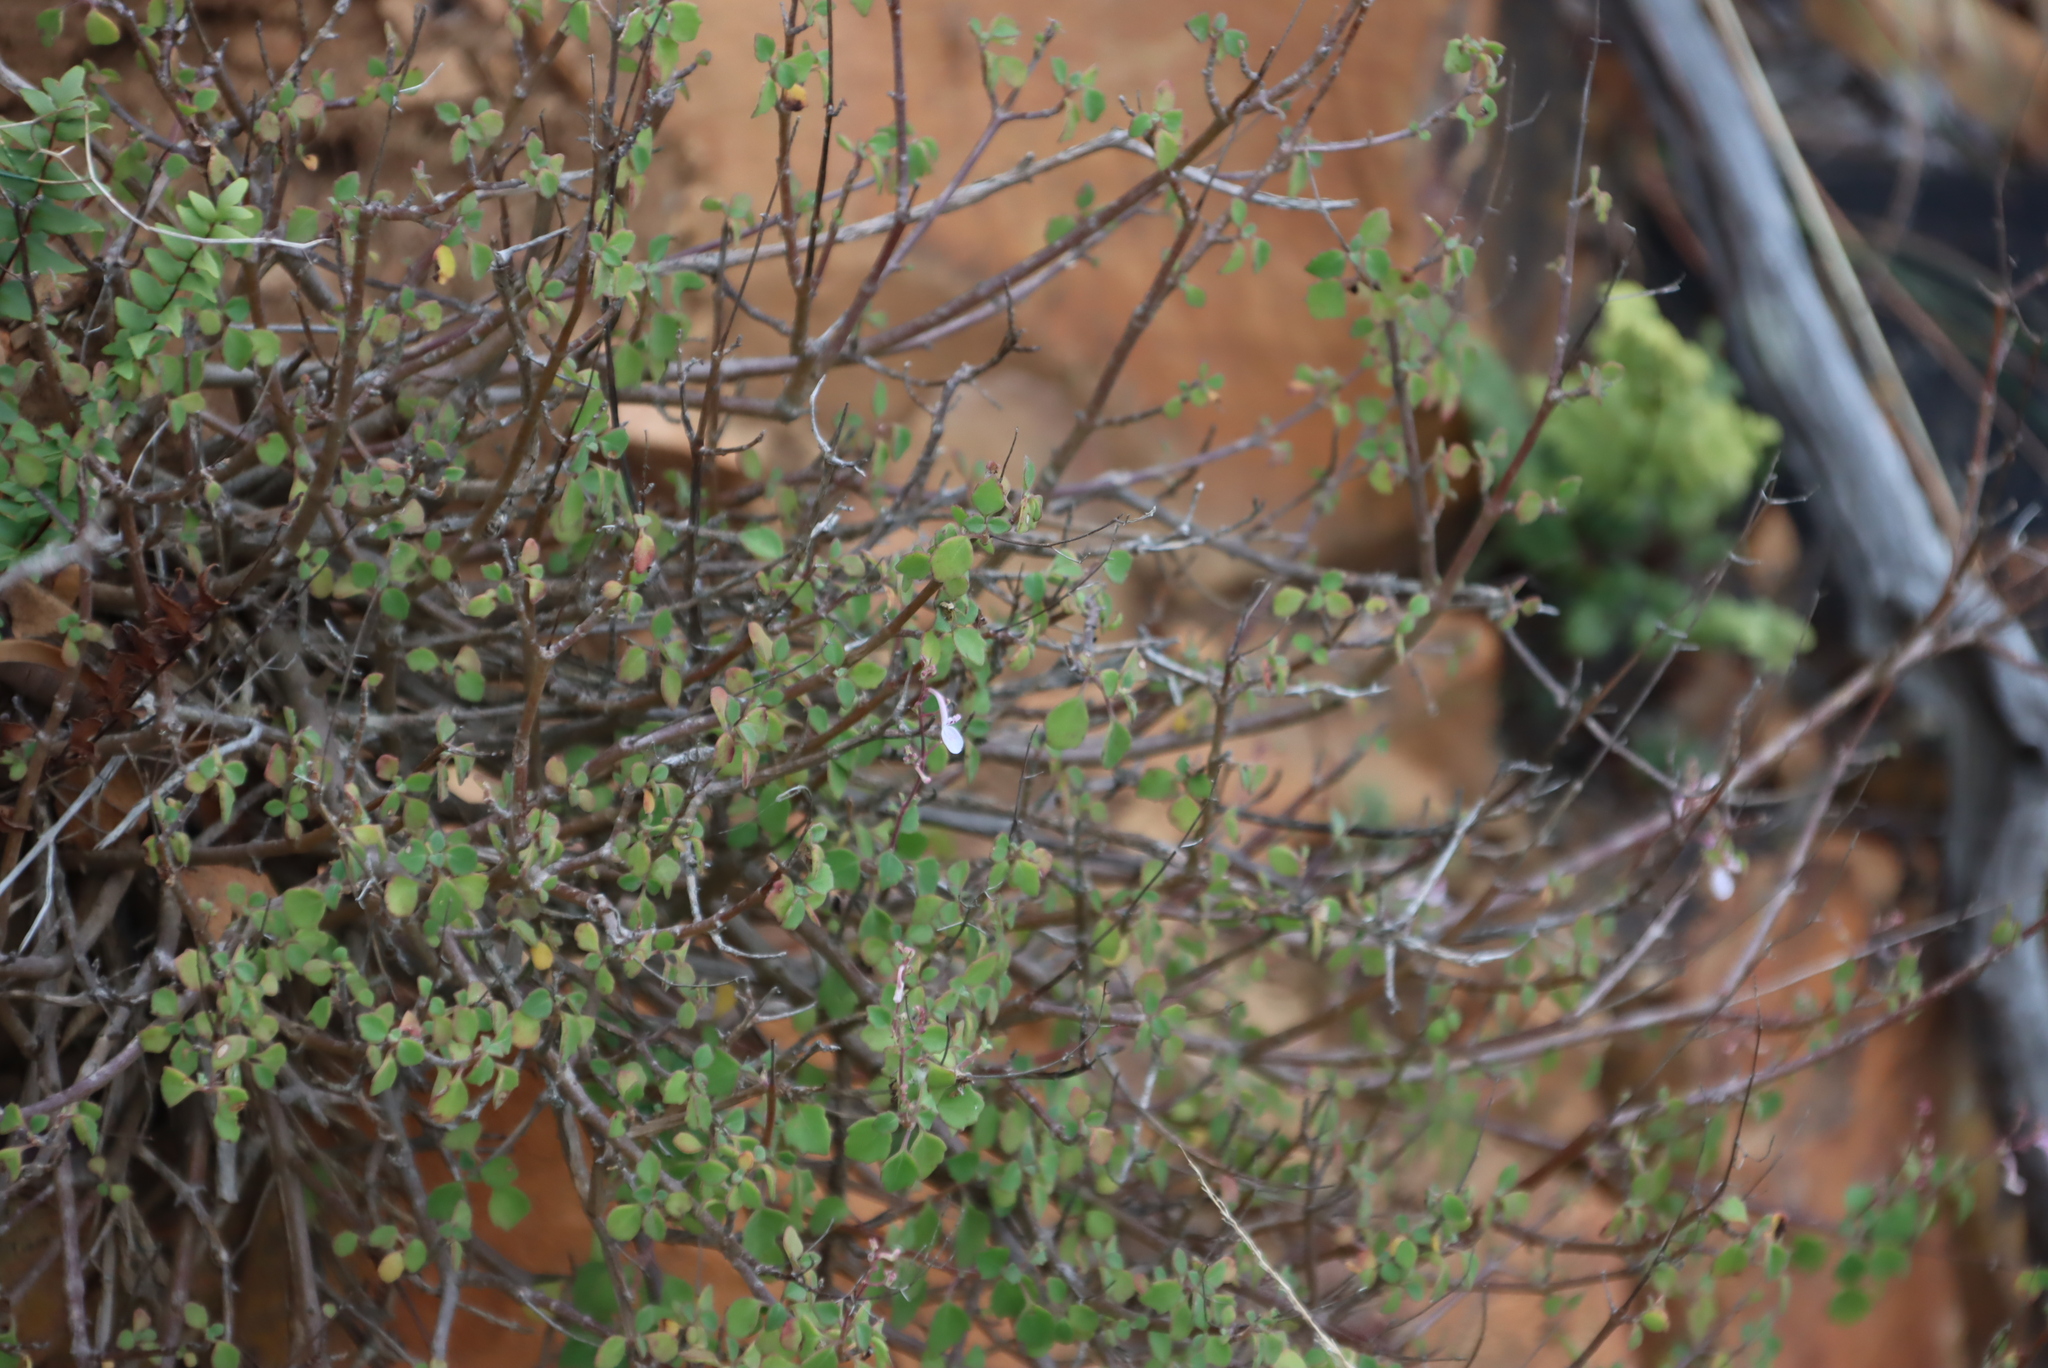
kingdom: Plantae
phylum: Tracheophyta
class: Magnoliopsida
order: Lamiales
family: Lamiaceae
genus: Aeollanthus
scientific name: Aeollanthus parvifolius
